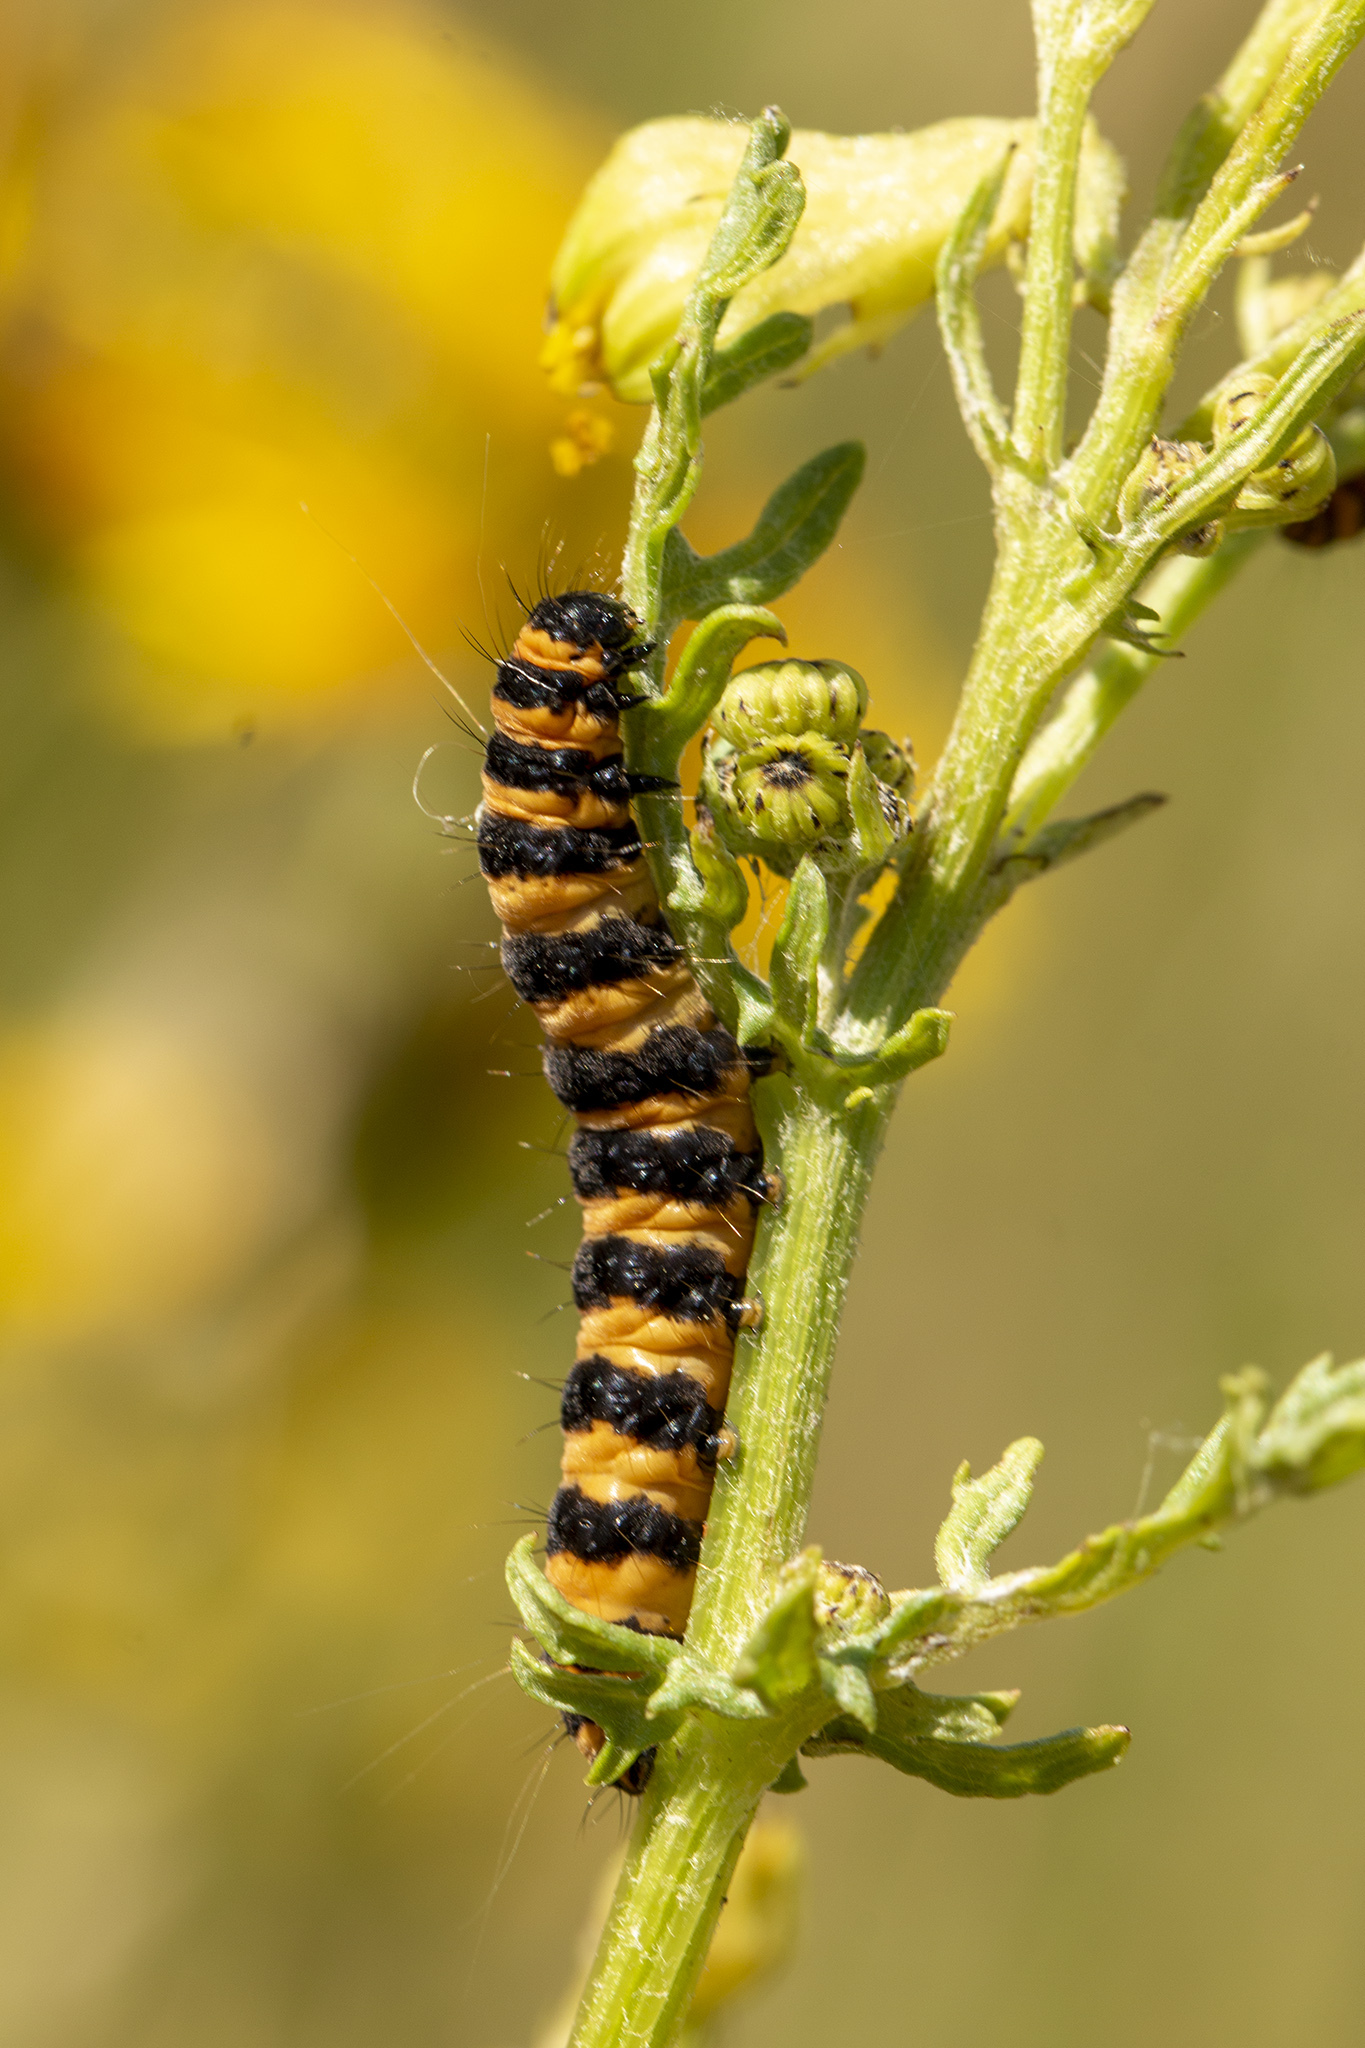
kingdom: Animalia
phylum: Arthropoda
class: Insecta
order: Lepidoptera
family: Erebidae
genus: Tyria
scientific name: Tyria jacobaeae
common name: Cinnabar
